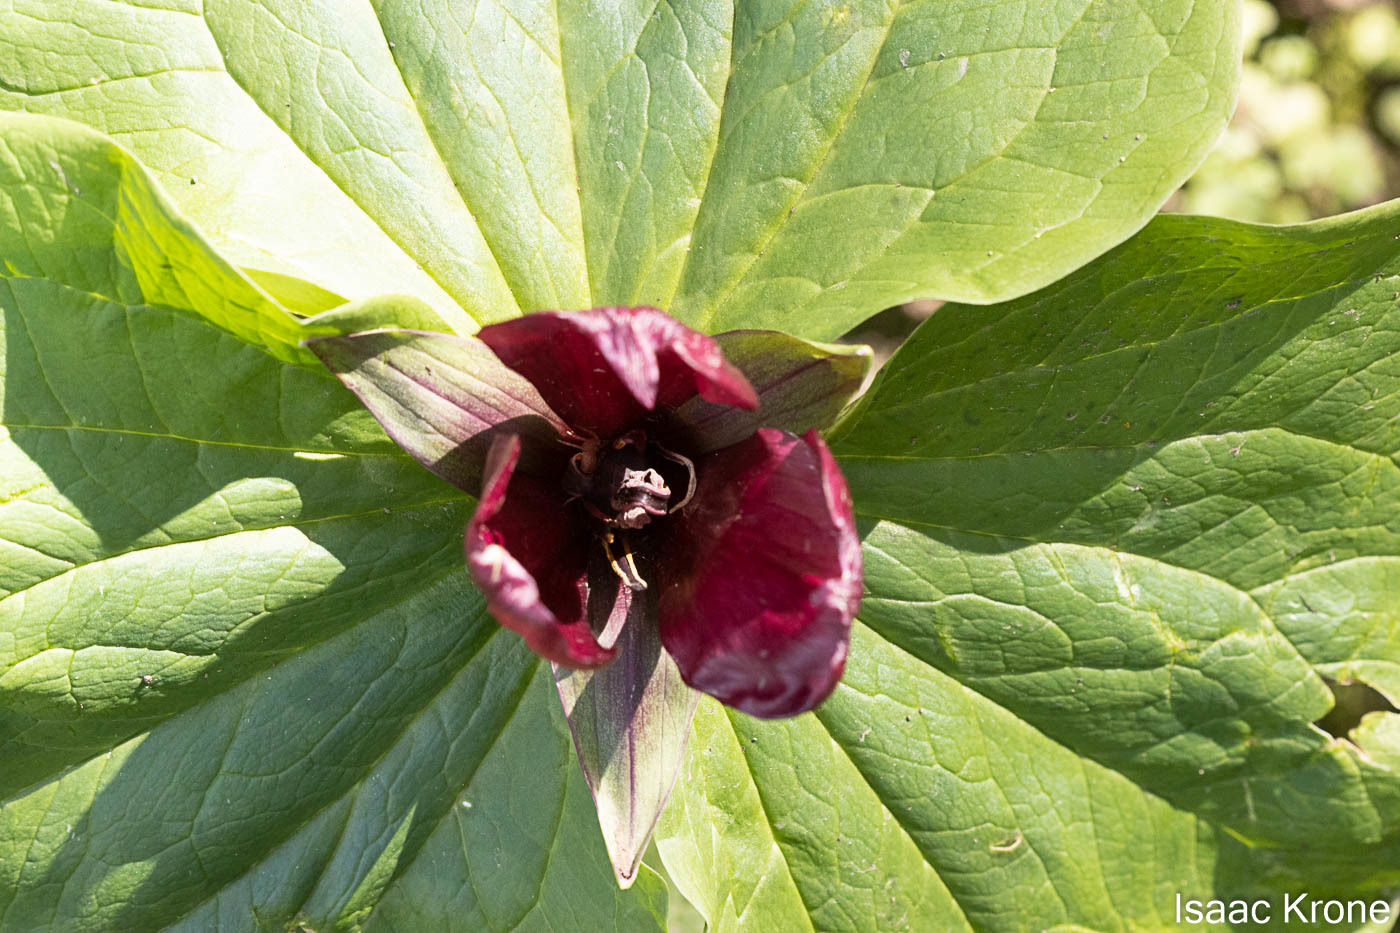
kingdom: Plantae
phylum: Tracheophyta
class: Liliopsida
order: Liliales
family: Melanthiaceae
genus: Trillium
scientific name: Trillium chloropetalum
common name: Giant trillium
